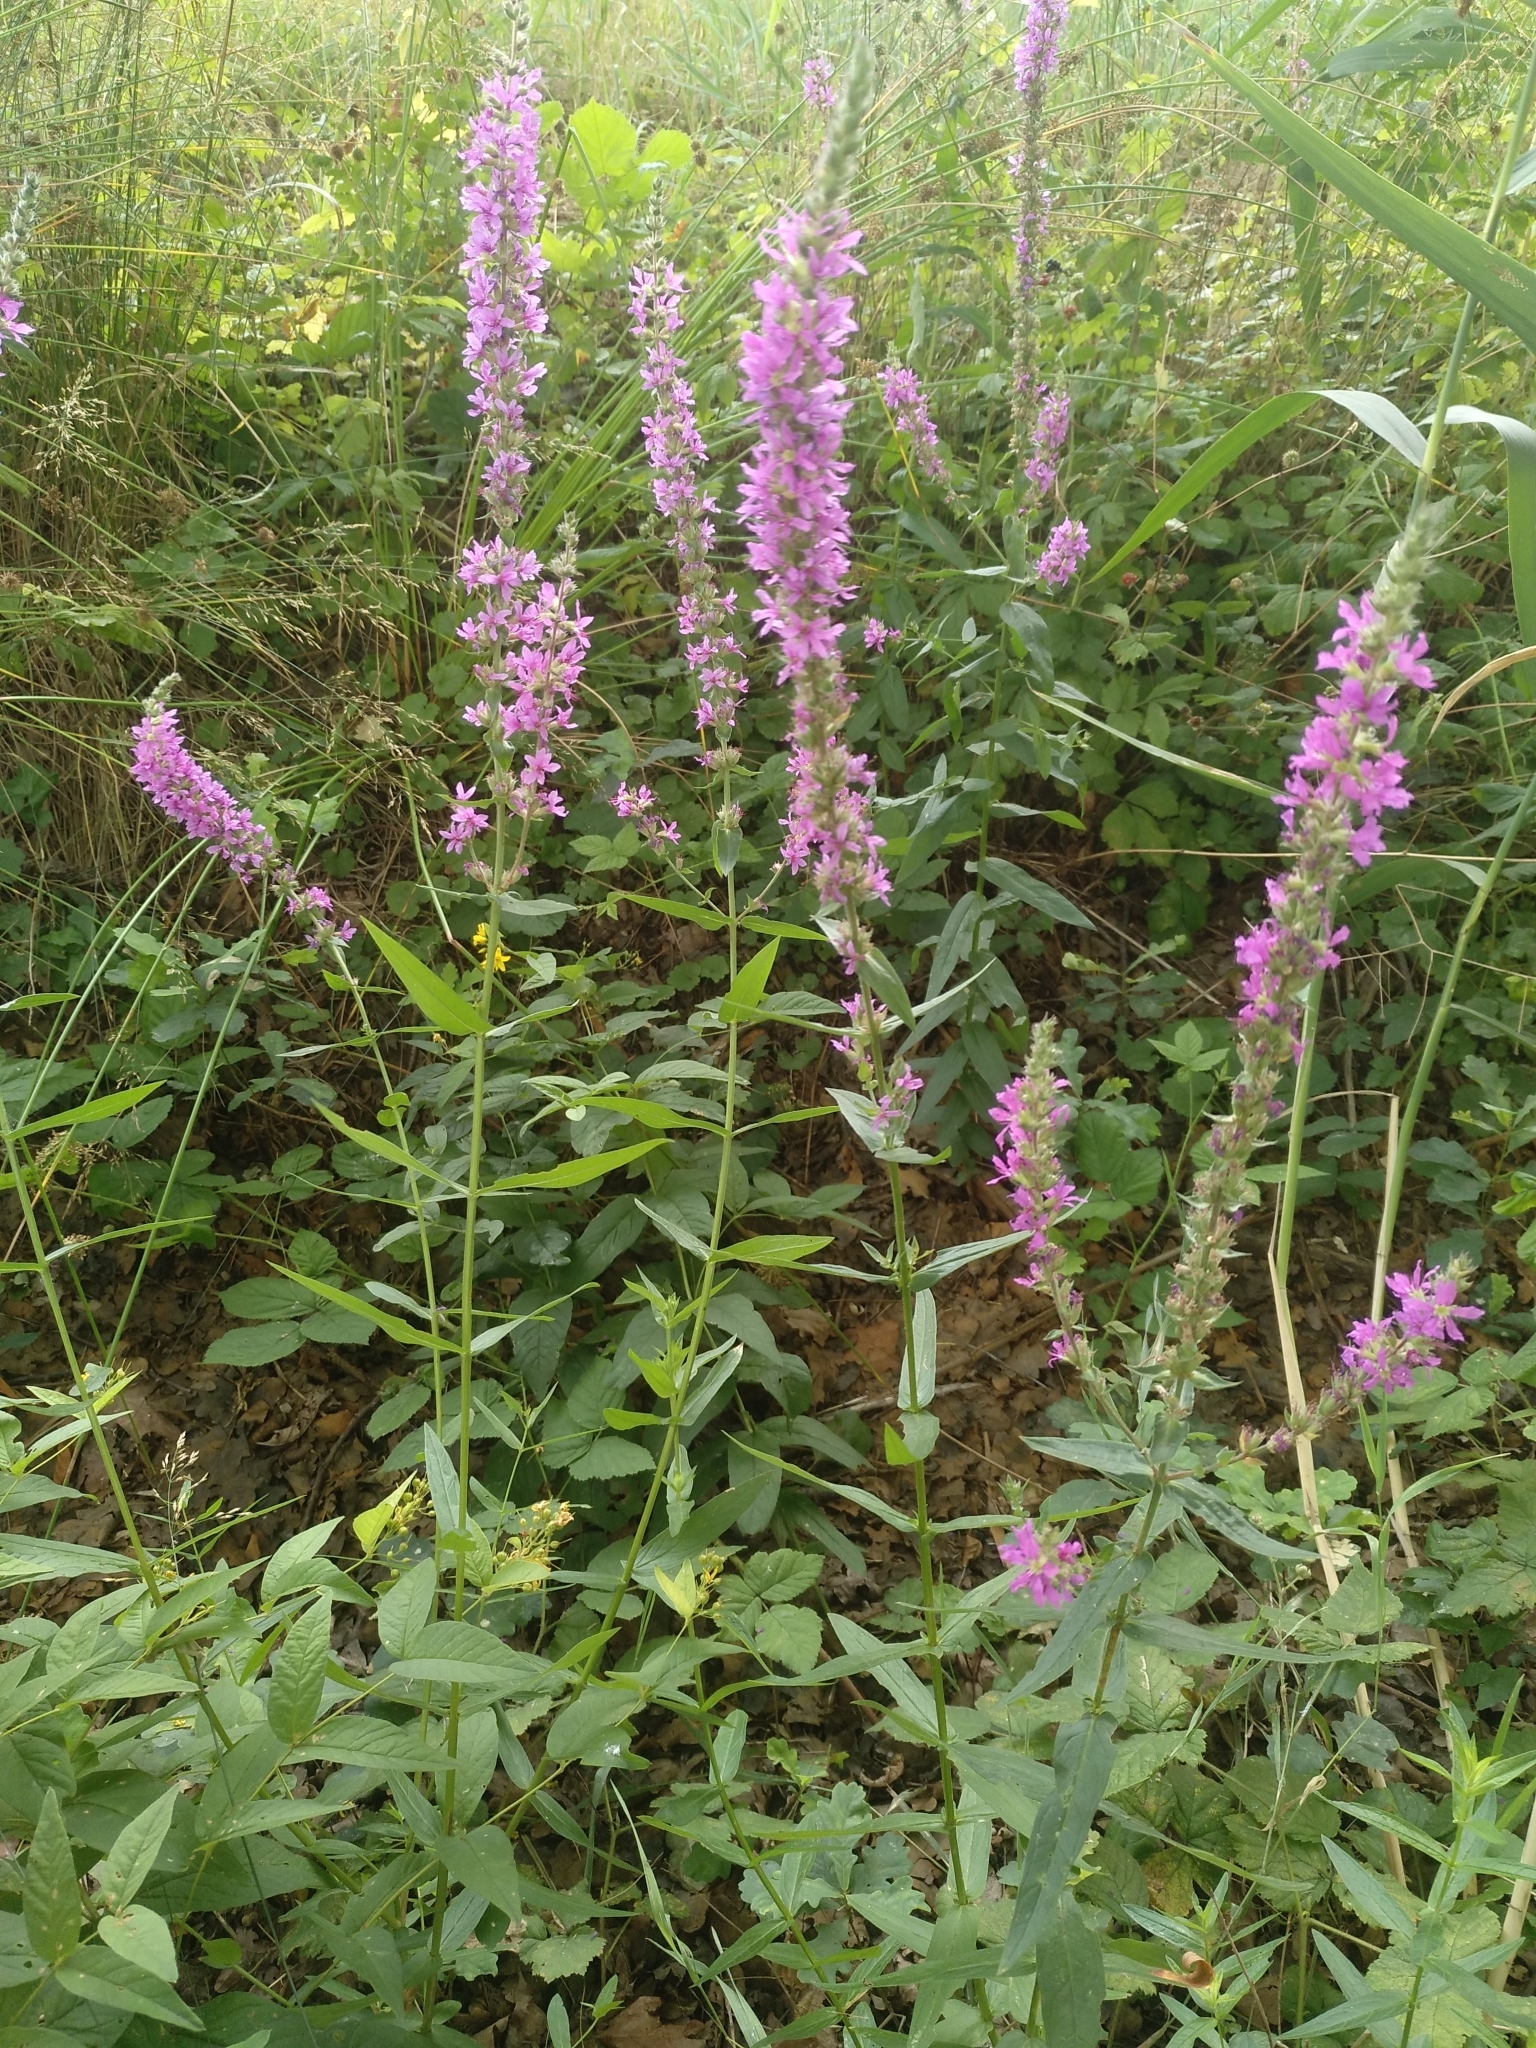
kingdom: Plantae
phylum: Tracheophyta
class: Magnoliopsida
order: Myrtales
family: Lythraceae
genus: Lythrum
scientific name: Lythrum salicaria
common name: Purple loosestrife
